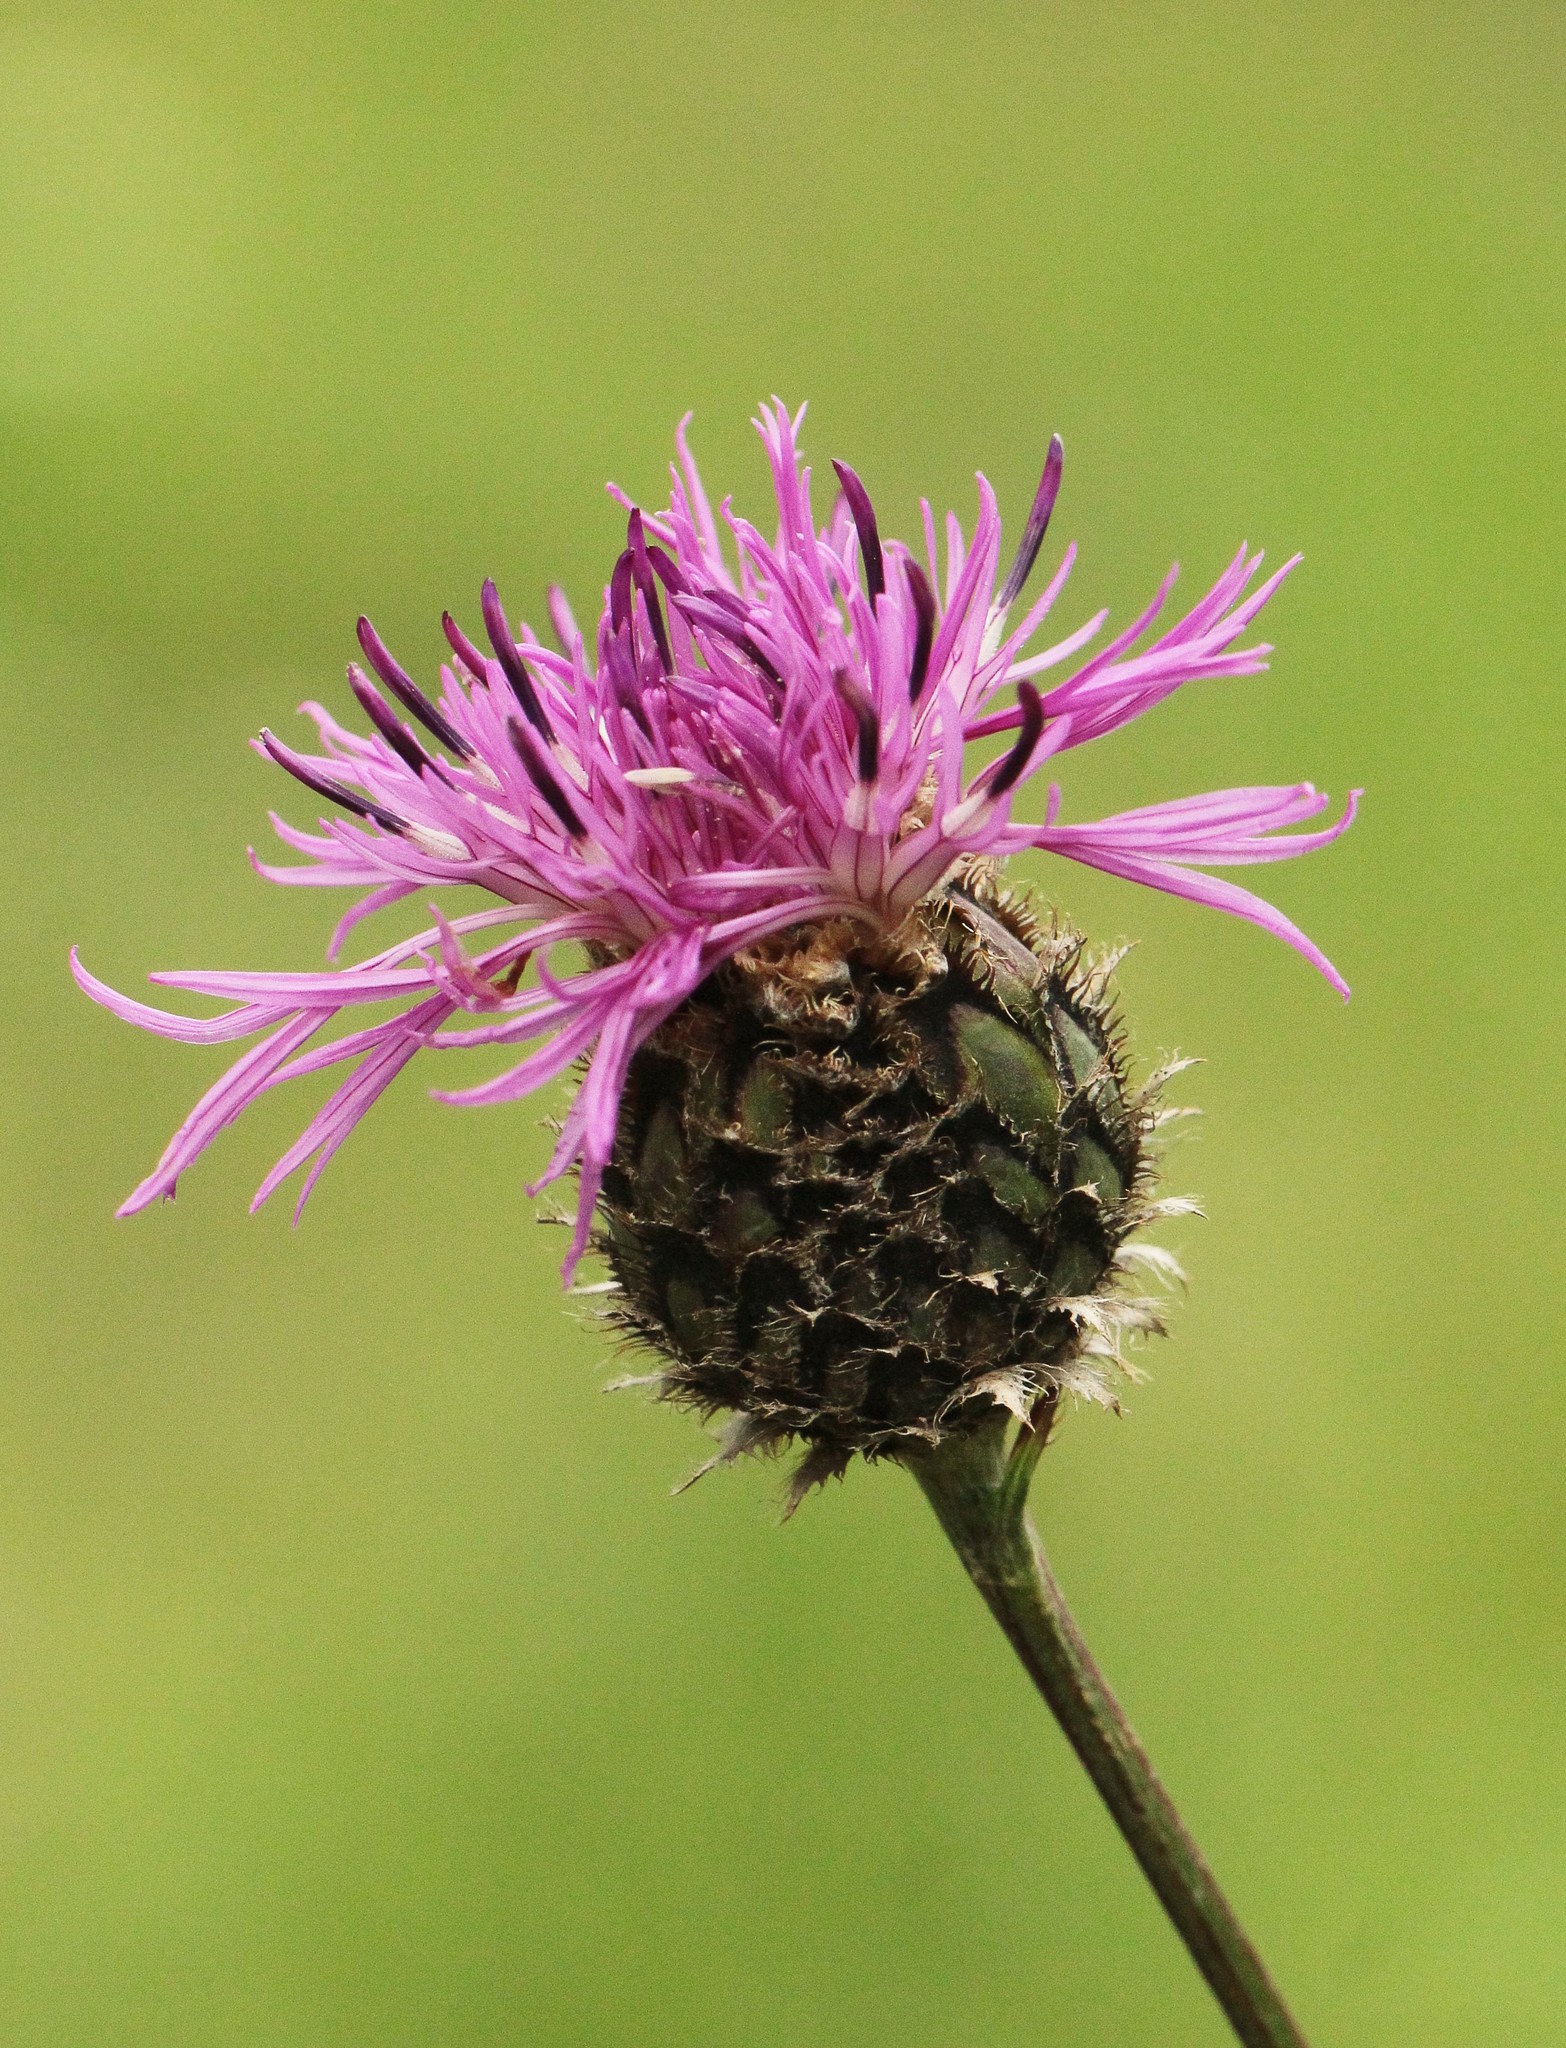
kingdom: Plantae
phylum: Tracheophyta
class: Magnoliopsida
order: Asterales
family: Asteraceae
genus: Centaurea
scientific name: Centaurea scabiosa
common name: Greater knapweed
